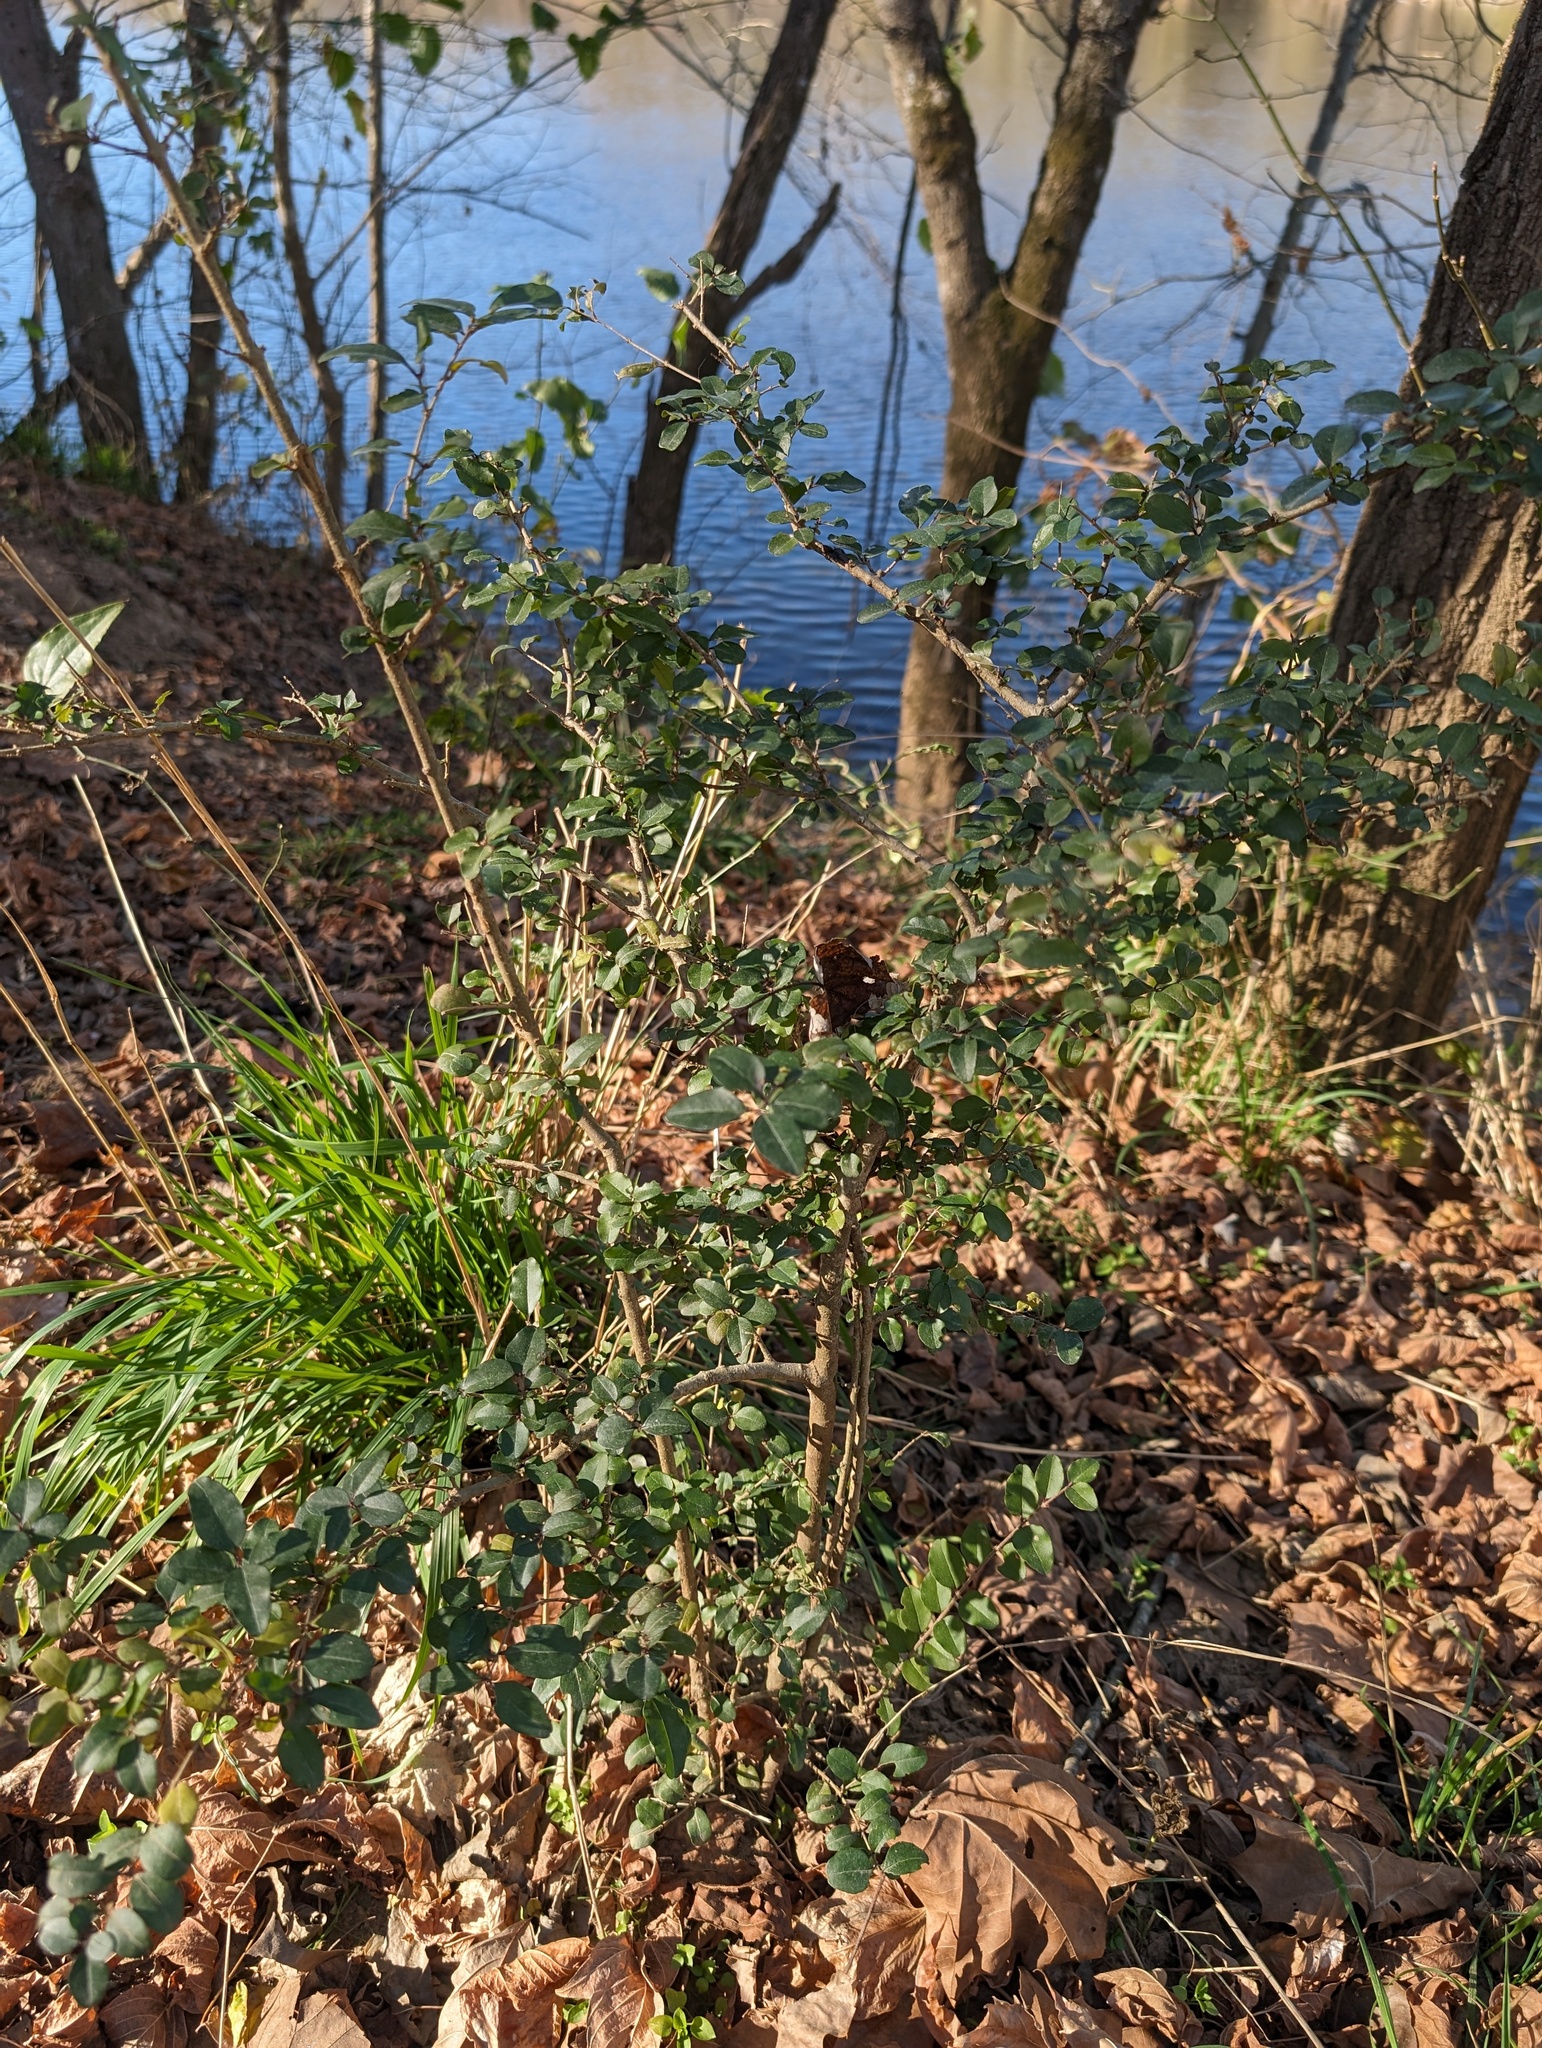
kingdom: Plantae
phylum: Tracheophyta
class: Magnoliopsida
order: Lamiales
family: Oleaceae
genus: Ligustrum
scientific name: Ligustrum sinense
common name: Chinese privet
